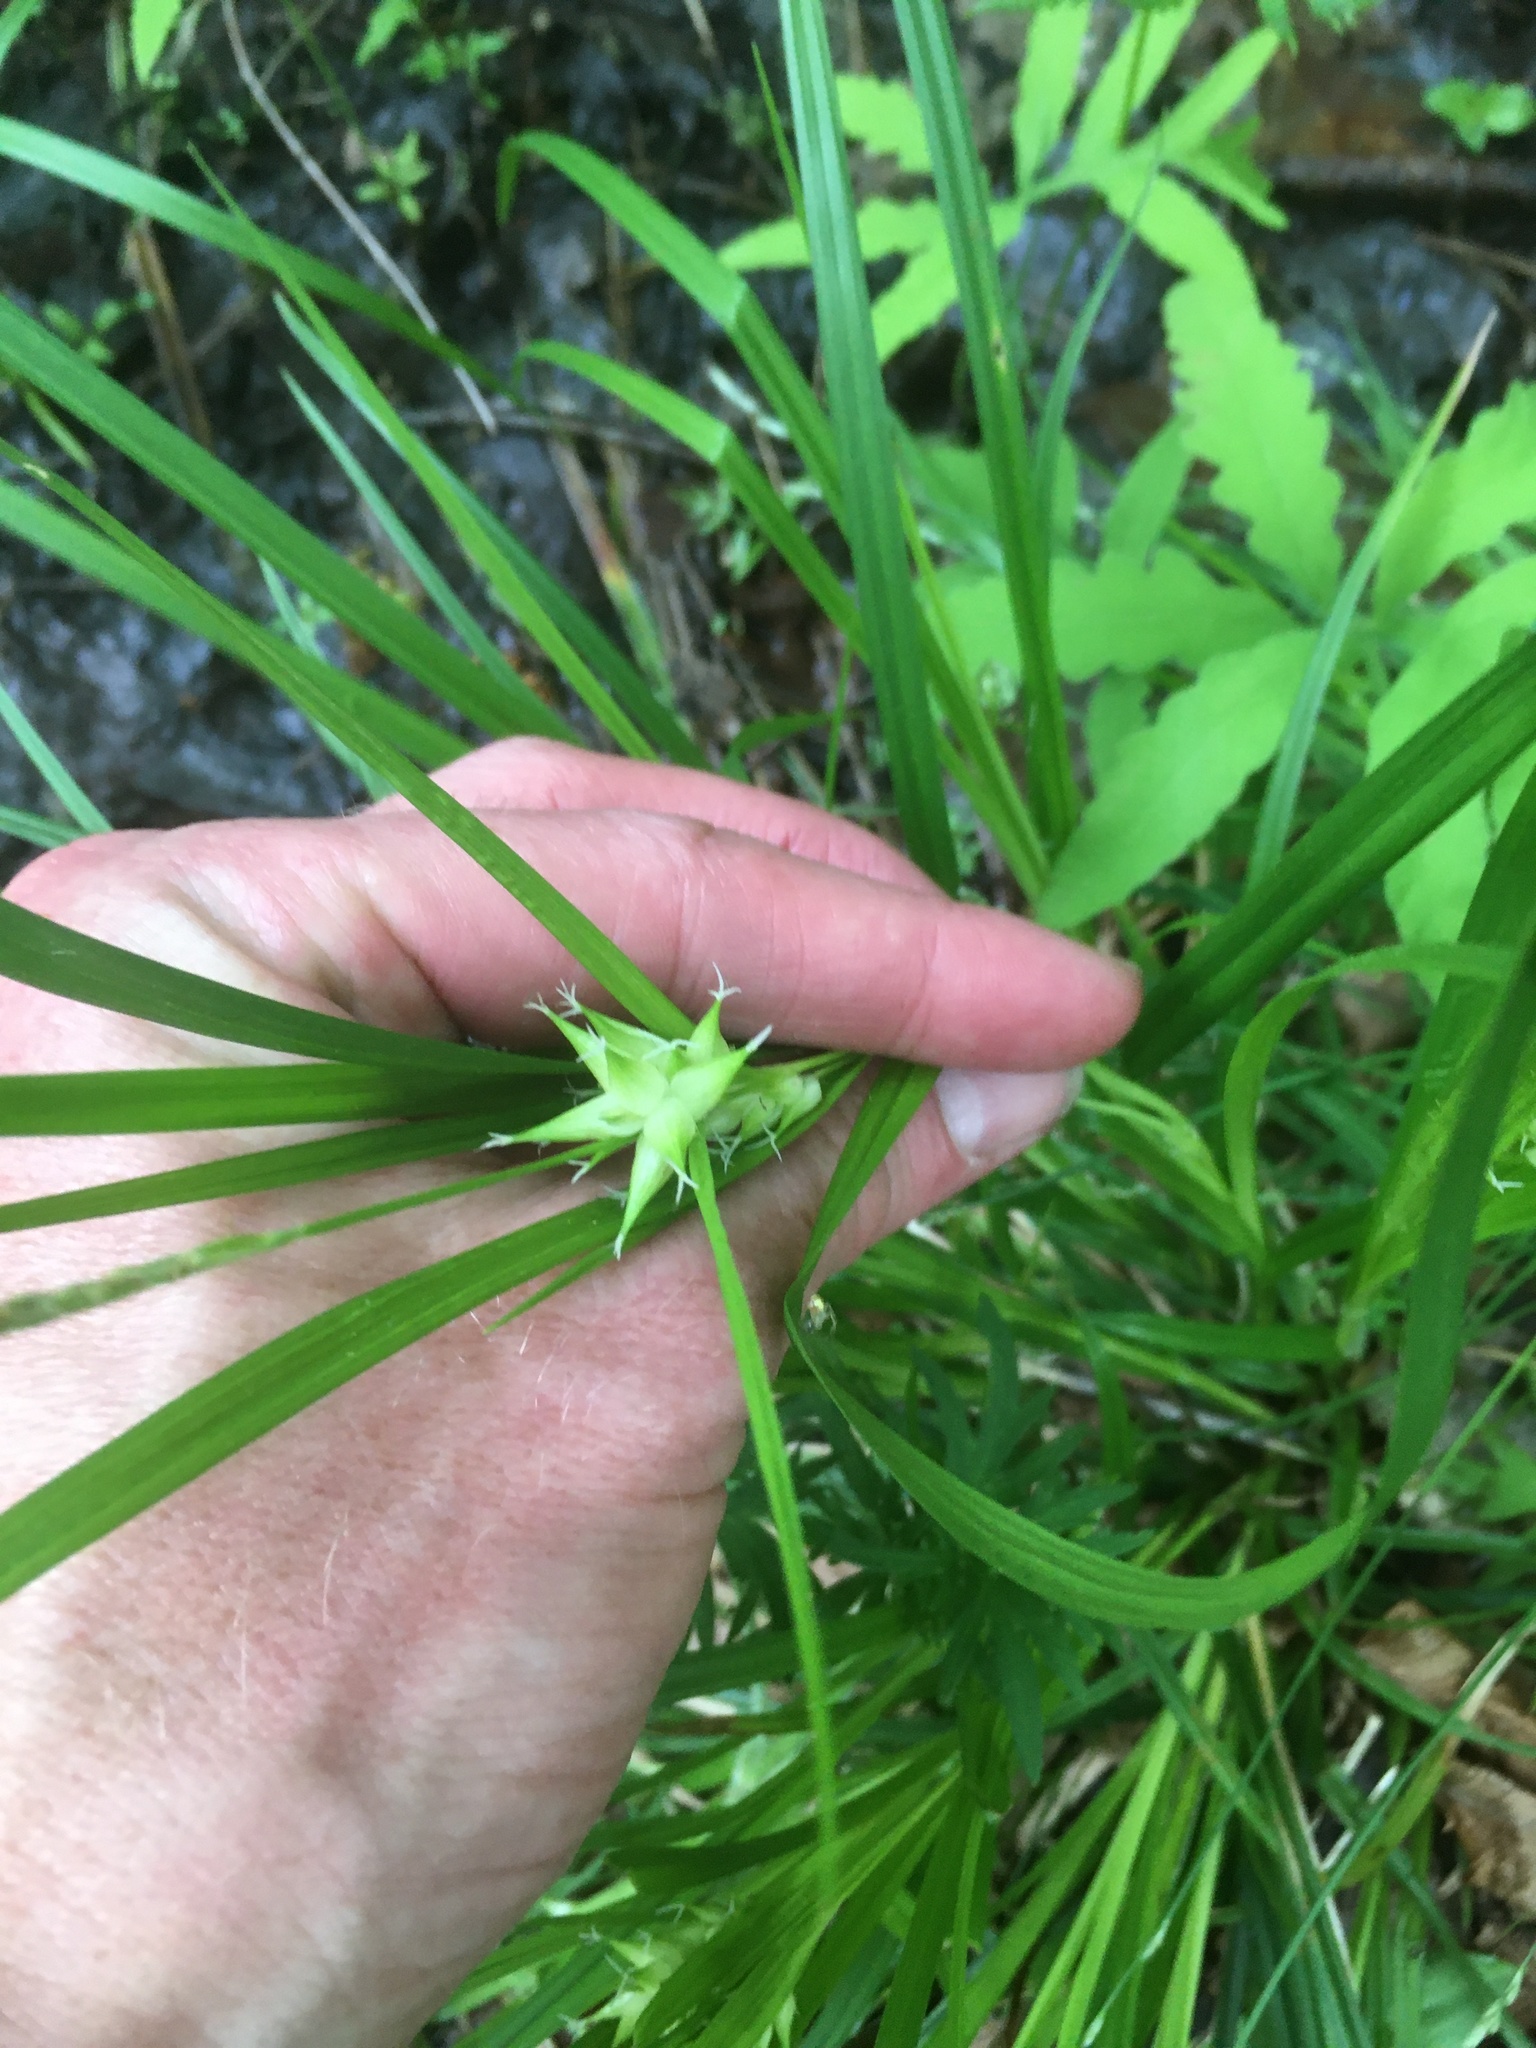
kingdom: Plantae
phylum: Tracheophyta
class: Liliopsida
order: Poales
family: Cyperaceae
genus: Carex
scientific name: Carex intumescens
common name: Greater bladder sedge
